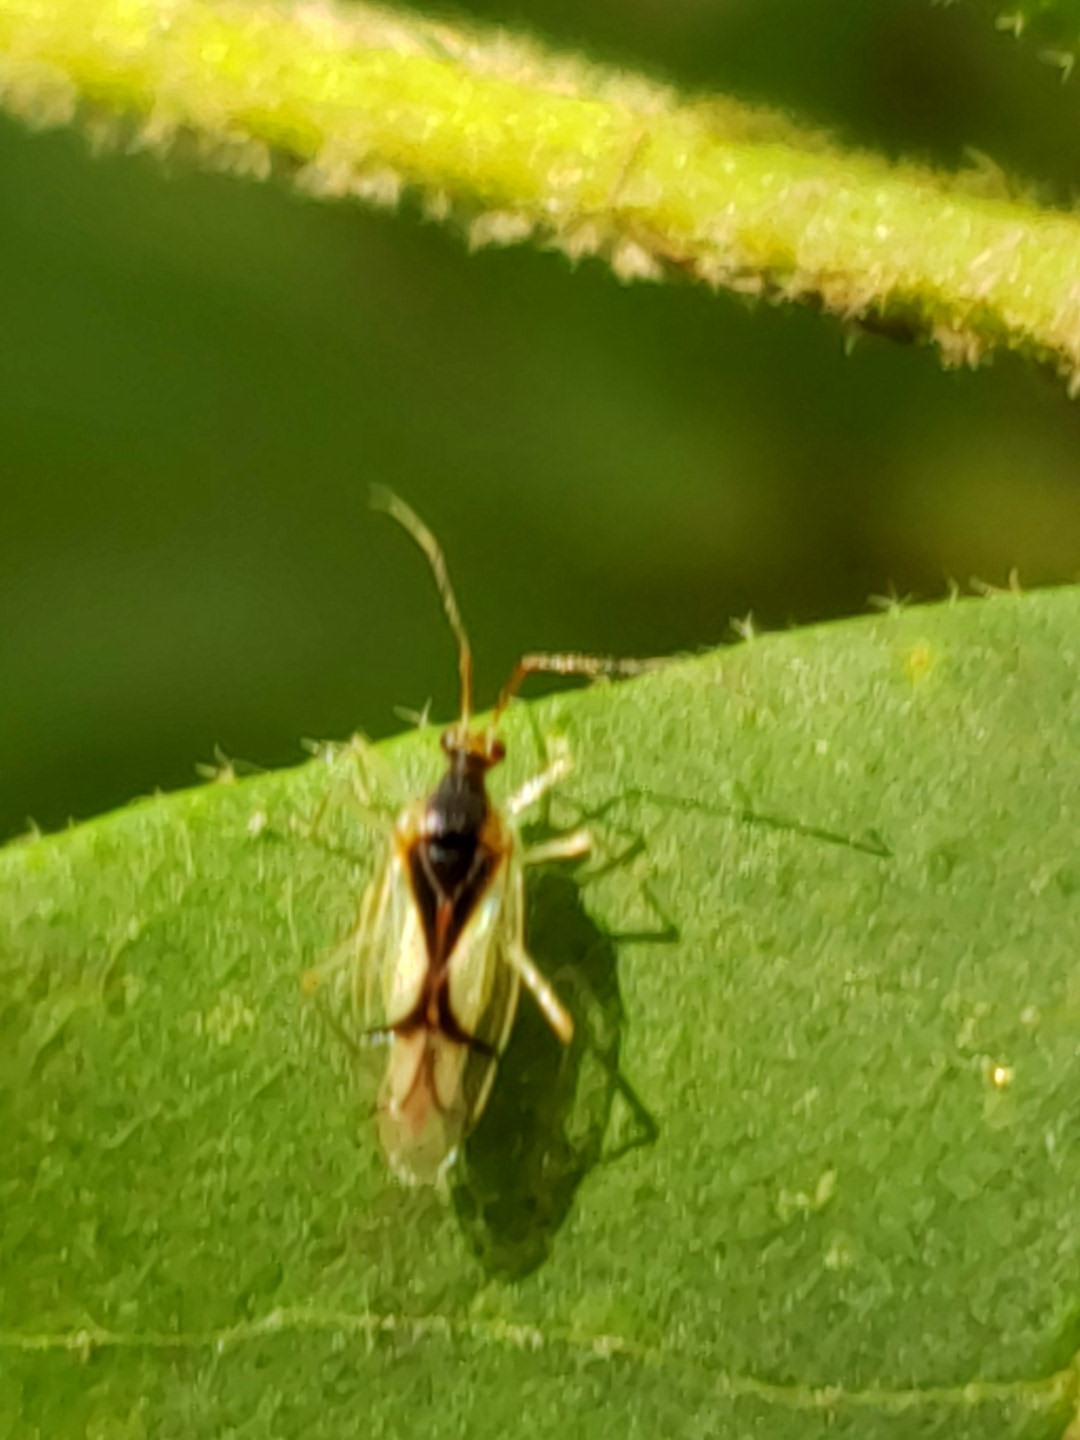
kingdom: Animalia
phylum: Arthropoda
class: Insecta
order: Hemiptera
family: Miridae
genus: Hyaliodes
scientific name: Hyaliodes vitripennis
